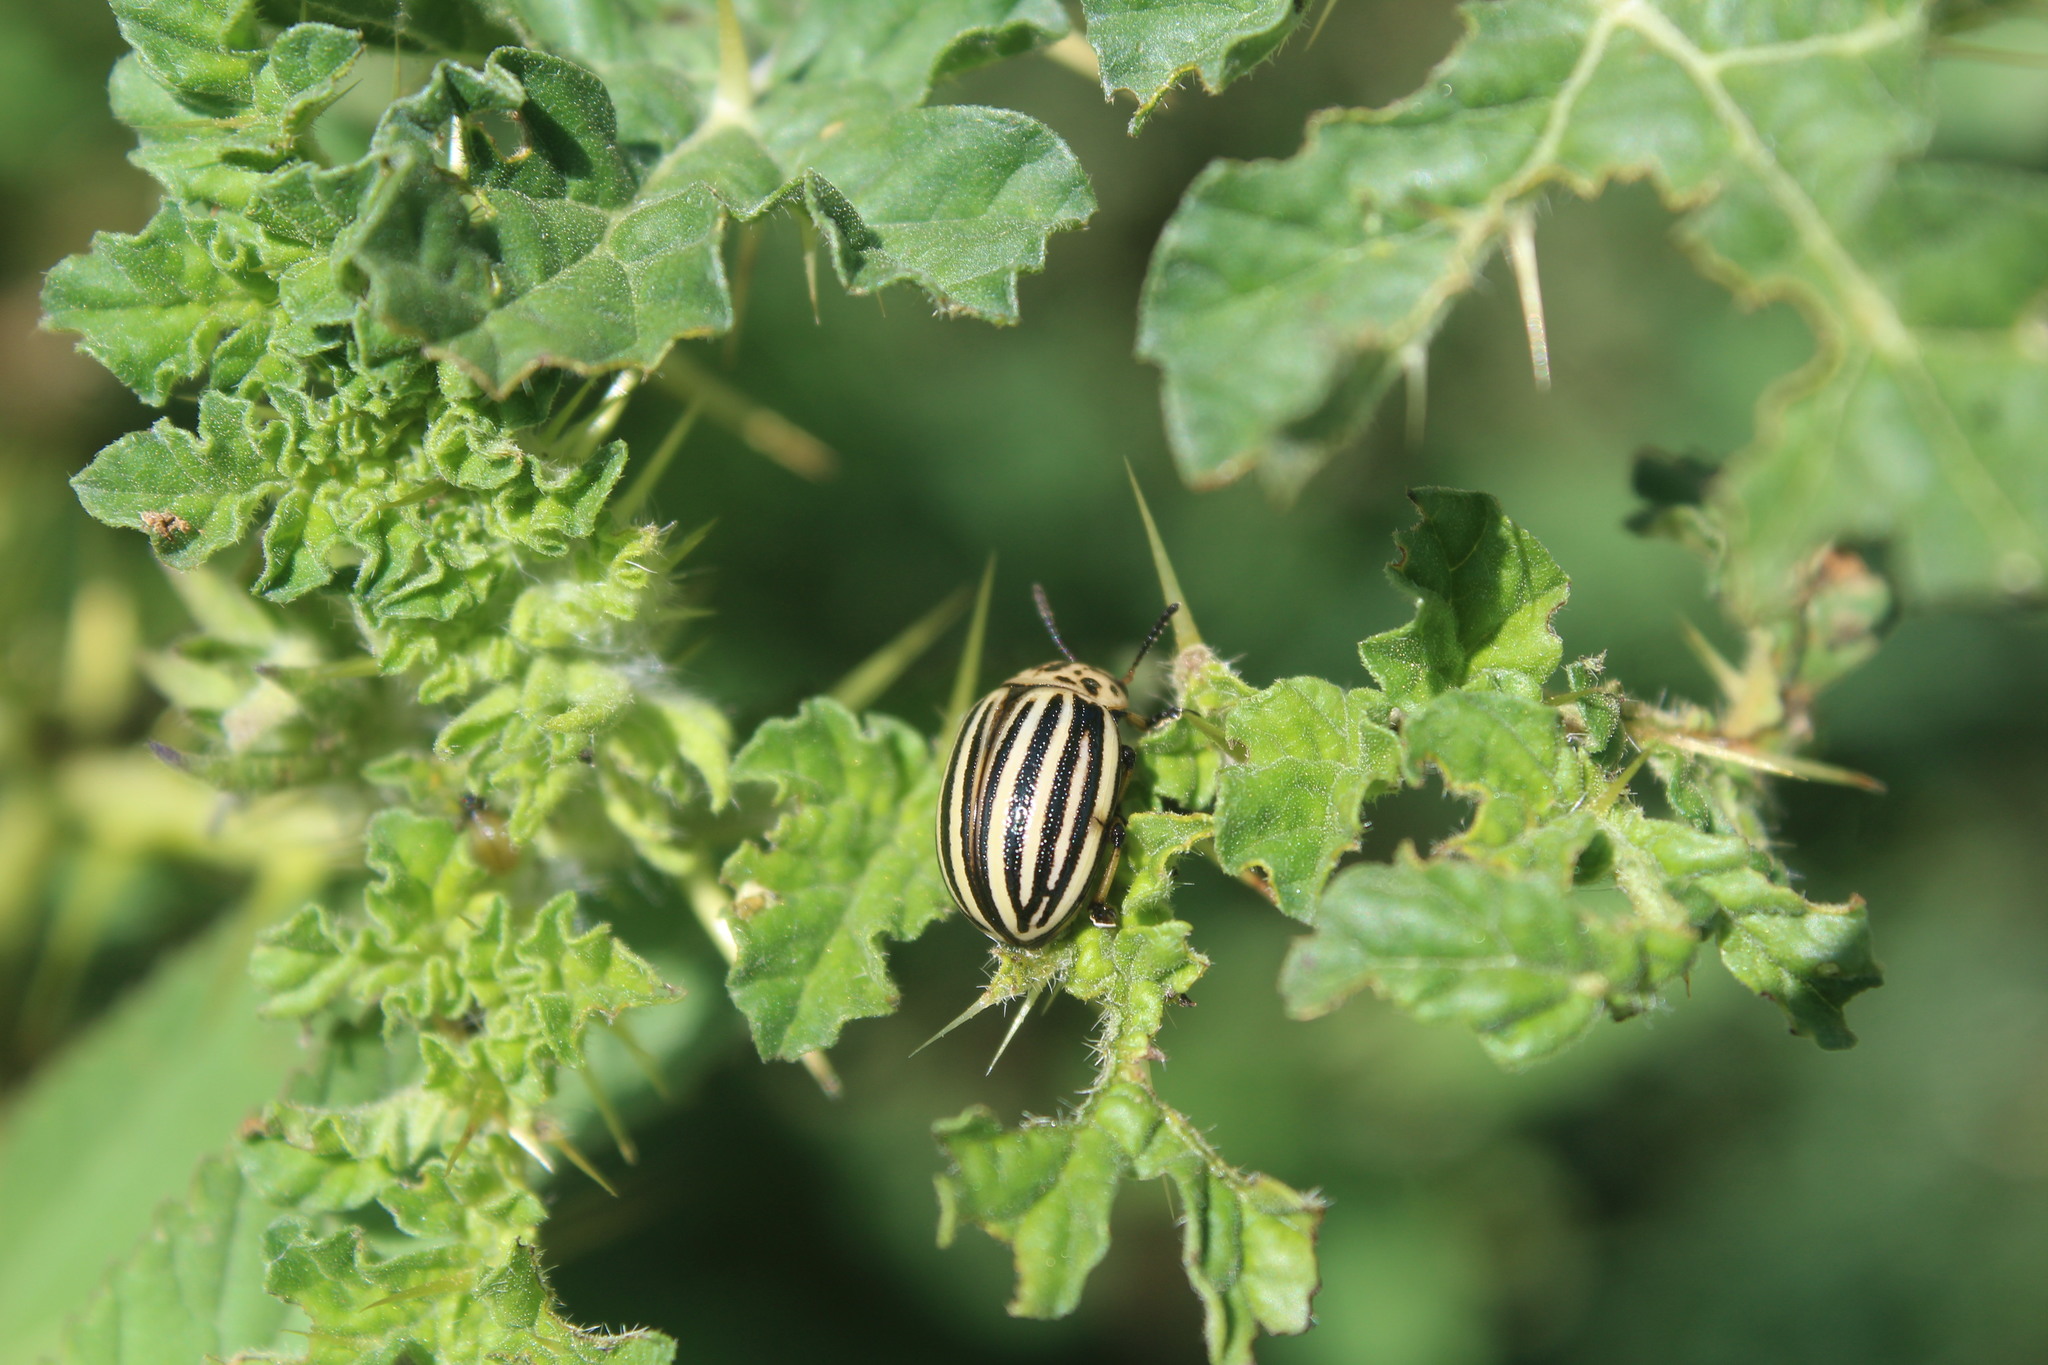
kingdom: Animalia
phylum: Arthropoda
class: Insecta
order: Coleoptera
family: Chrysomelidae
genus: Leptinotarsa
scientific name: Leptinotarsa decemlineata
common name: Colorado potato beetle
